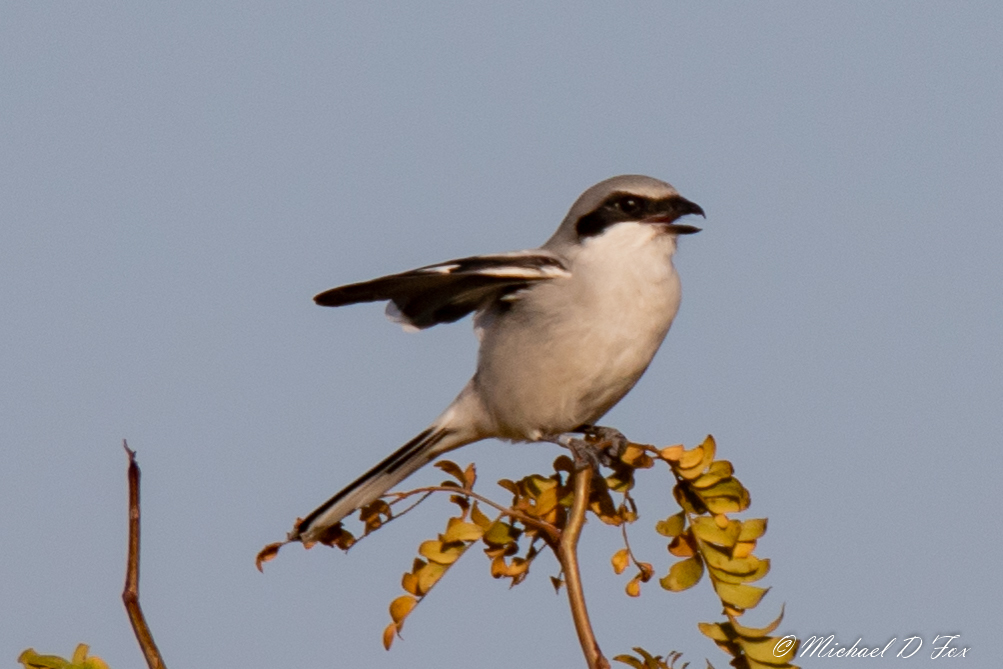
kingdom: Animalia
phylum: Chordata
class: Aves
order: Passeriformes
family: Laniidae
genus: Lanius
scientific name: Lanius ludovicianus
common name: Loggerhead shrike
